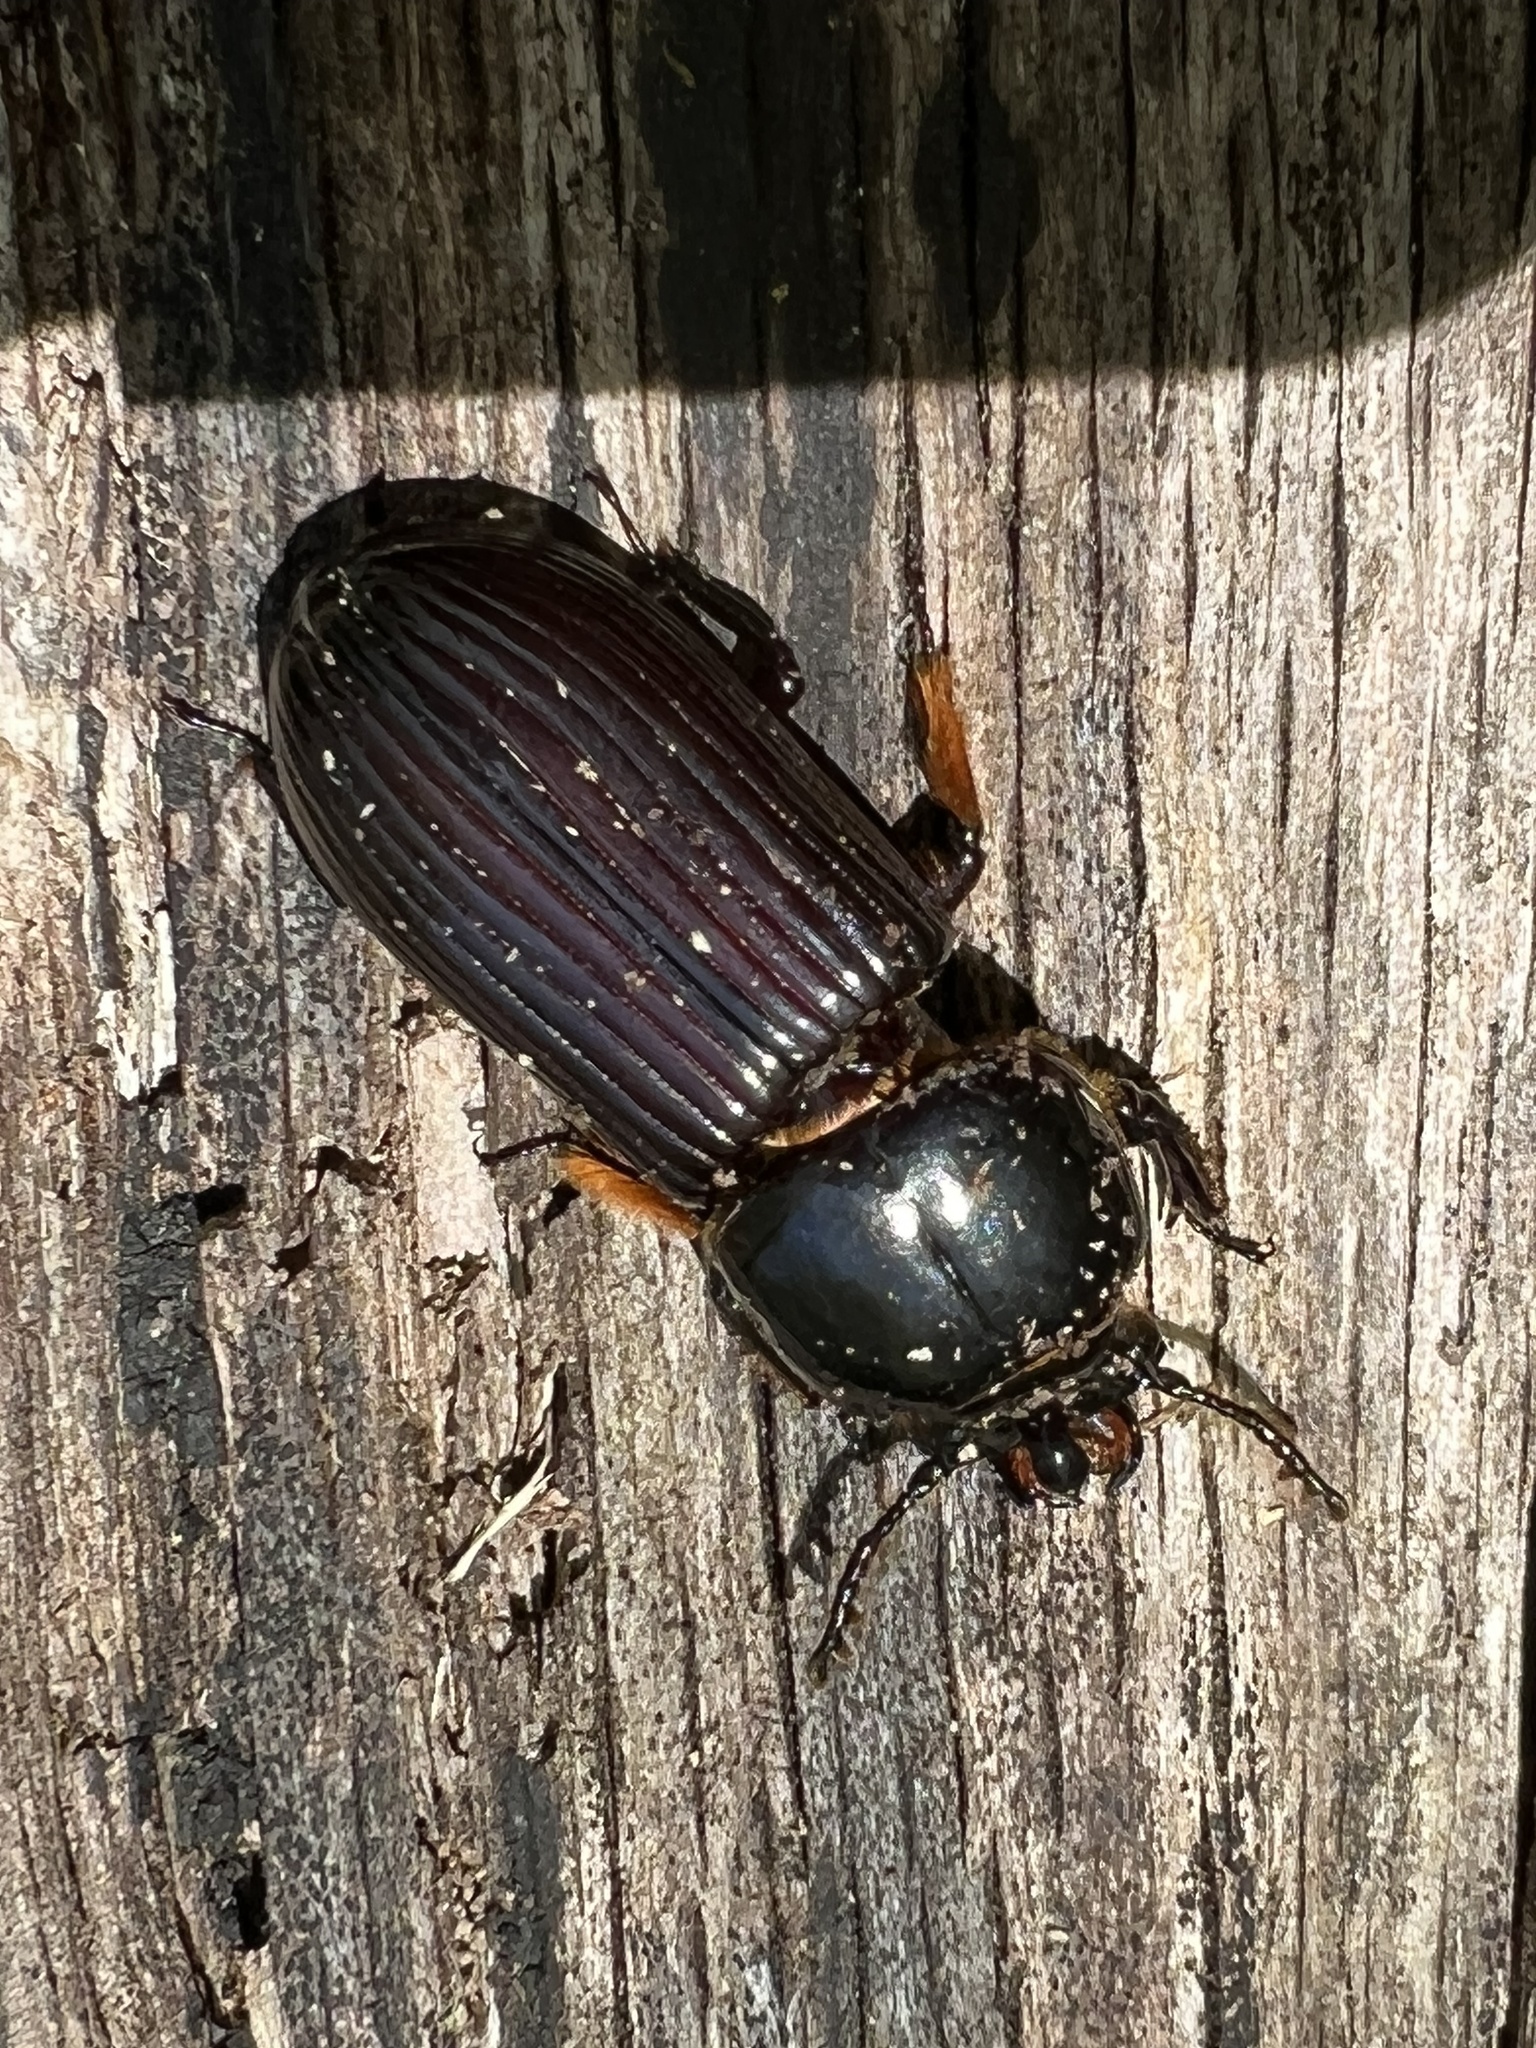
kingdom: Animalia
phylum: Arthropoda
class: Insecta
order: Coleoptera
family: Passalidae
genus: Odontotaenius
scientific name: Odontotaenius disjunctus
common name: Patent leather beetle
